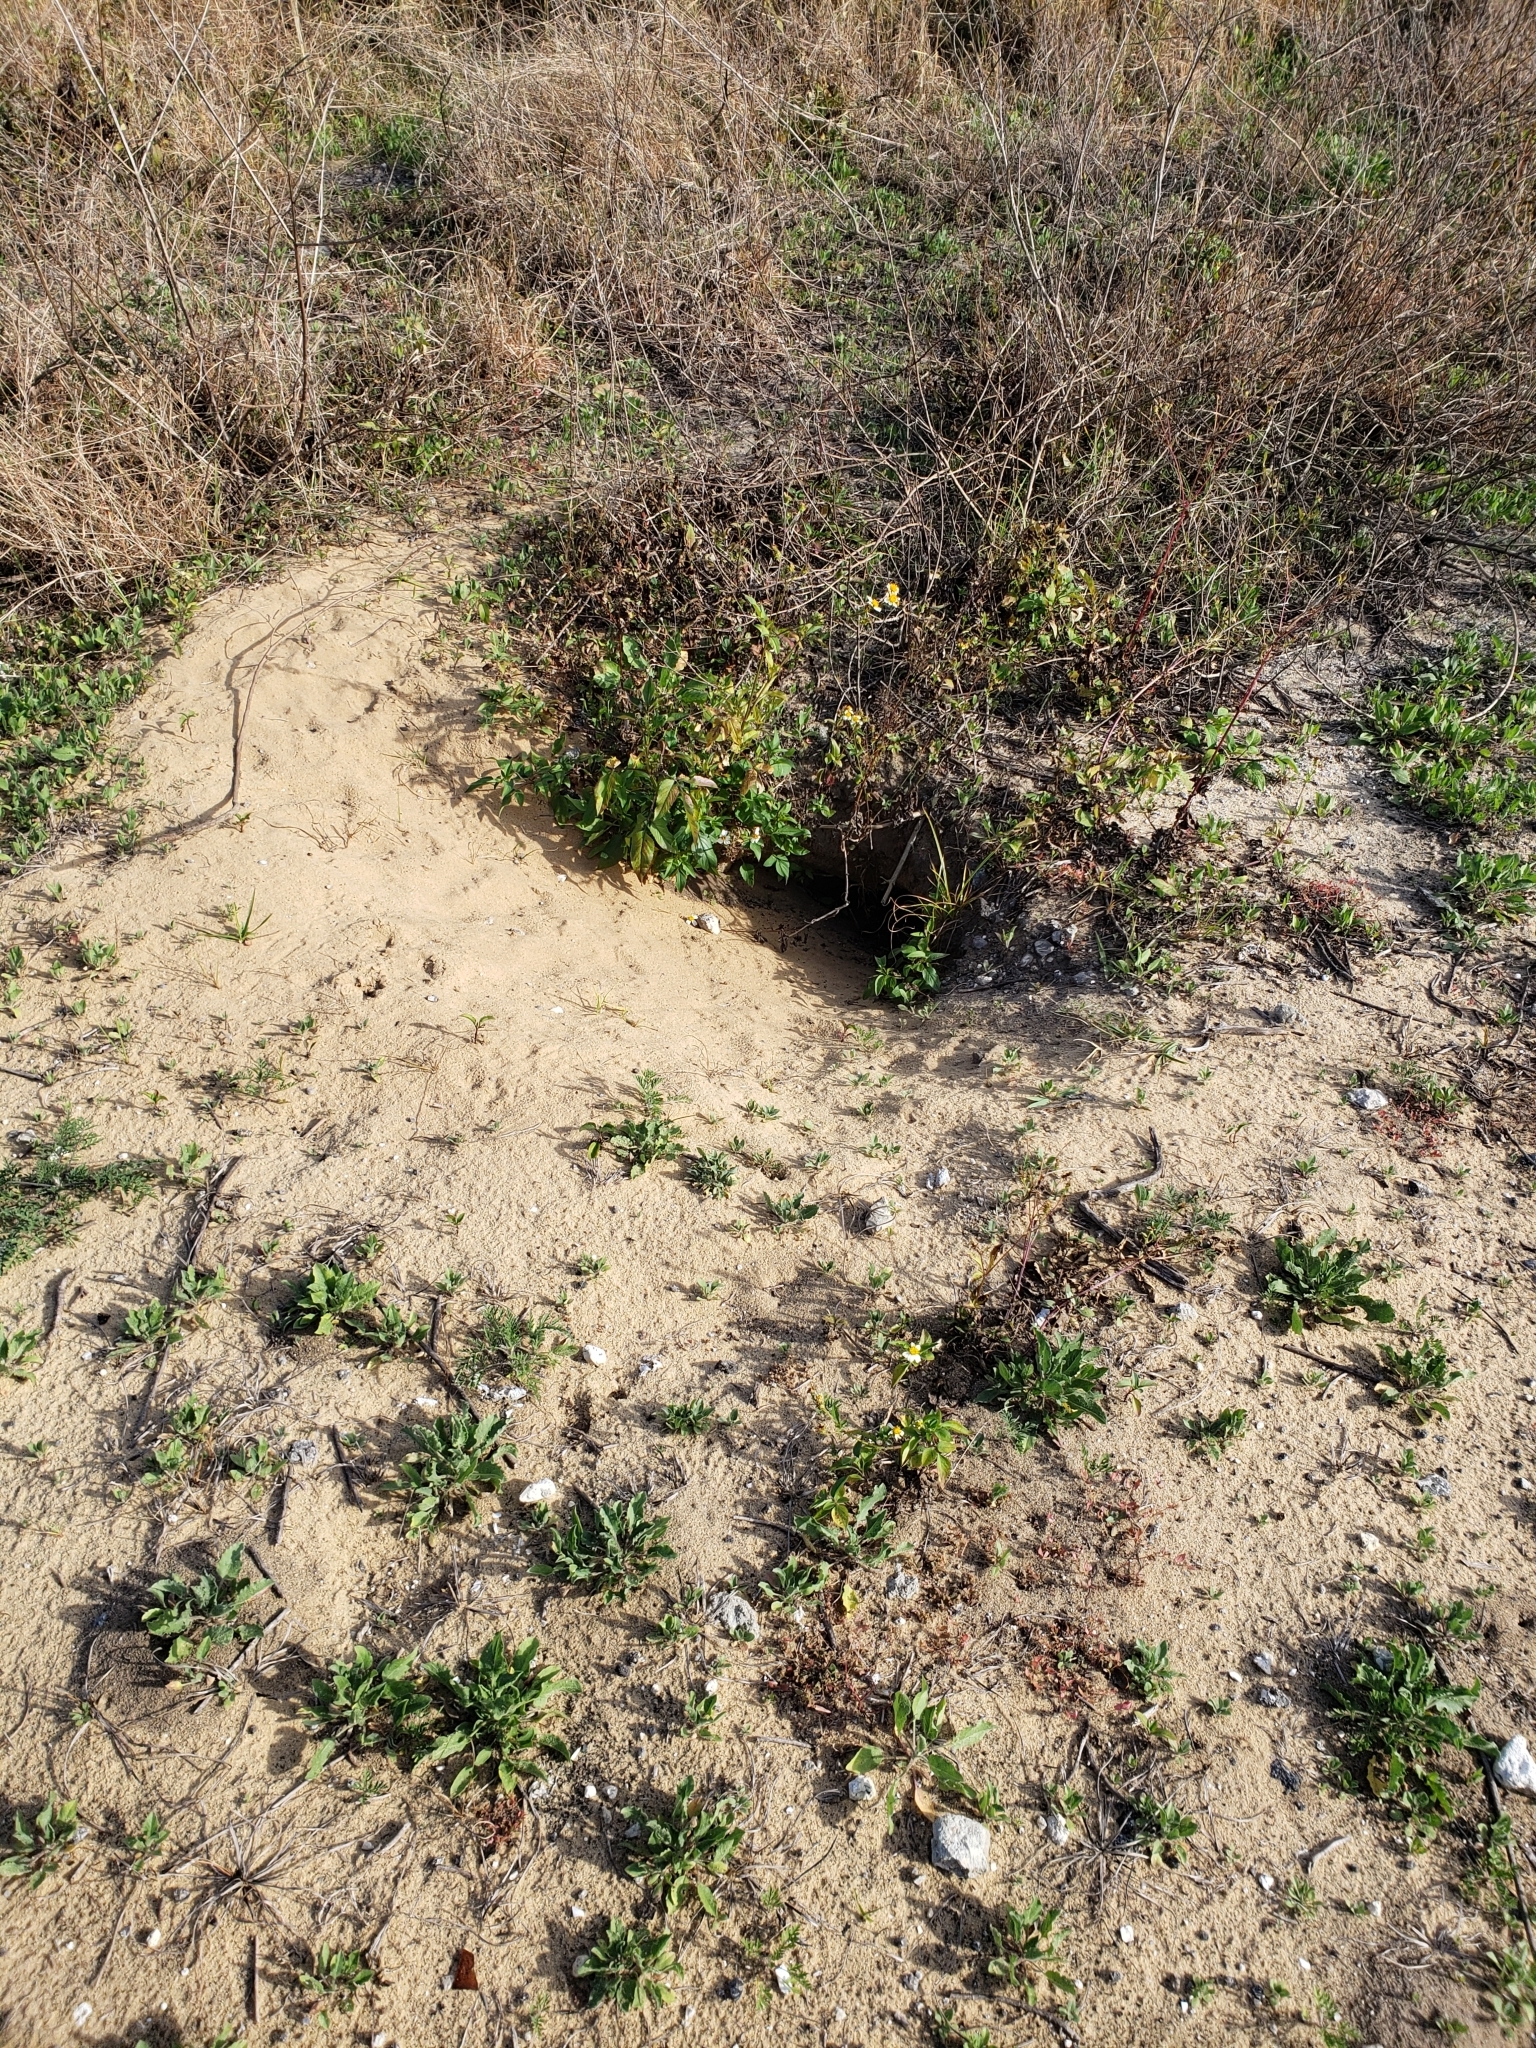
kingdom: Animalia
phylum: Chordata
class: Testudines
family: Testudinidae
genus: Gopherus
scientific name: Gopherus polyphemus
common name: Florida gopher tortoise
